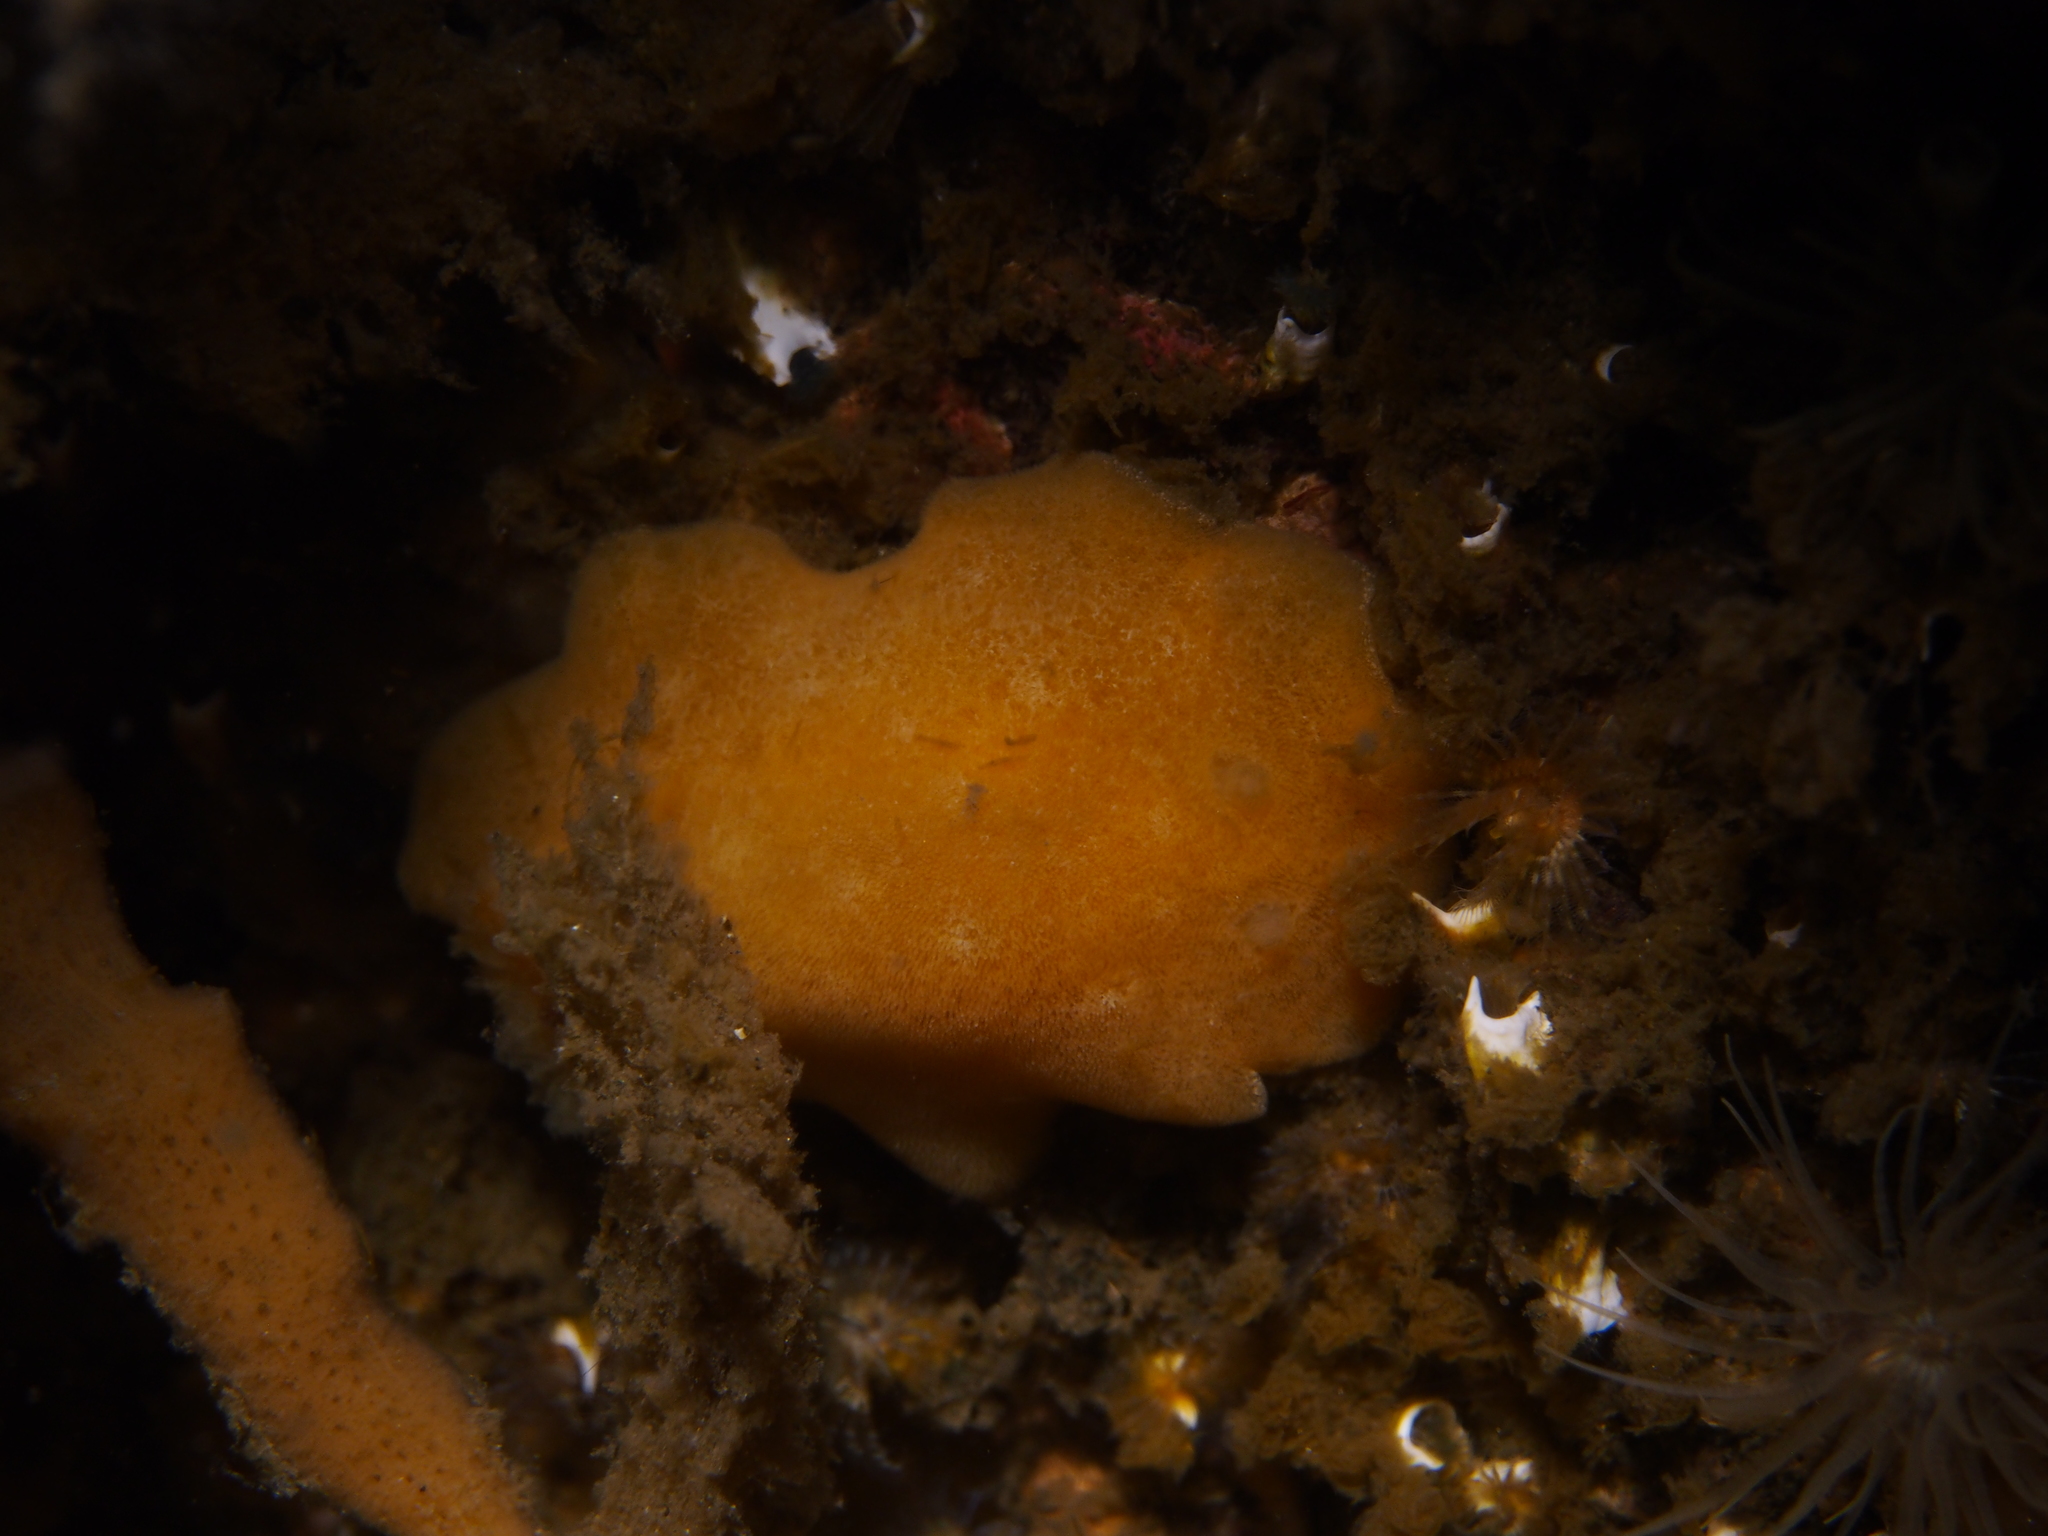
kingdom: Animalia
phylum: Mollusca
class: Gastropoda
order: Nudibranchia
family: Discodorididae
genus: Jorunna
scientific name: Jorunna tomentosa
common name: Grey sea slug
